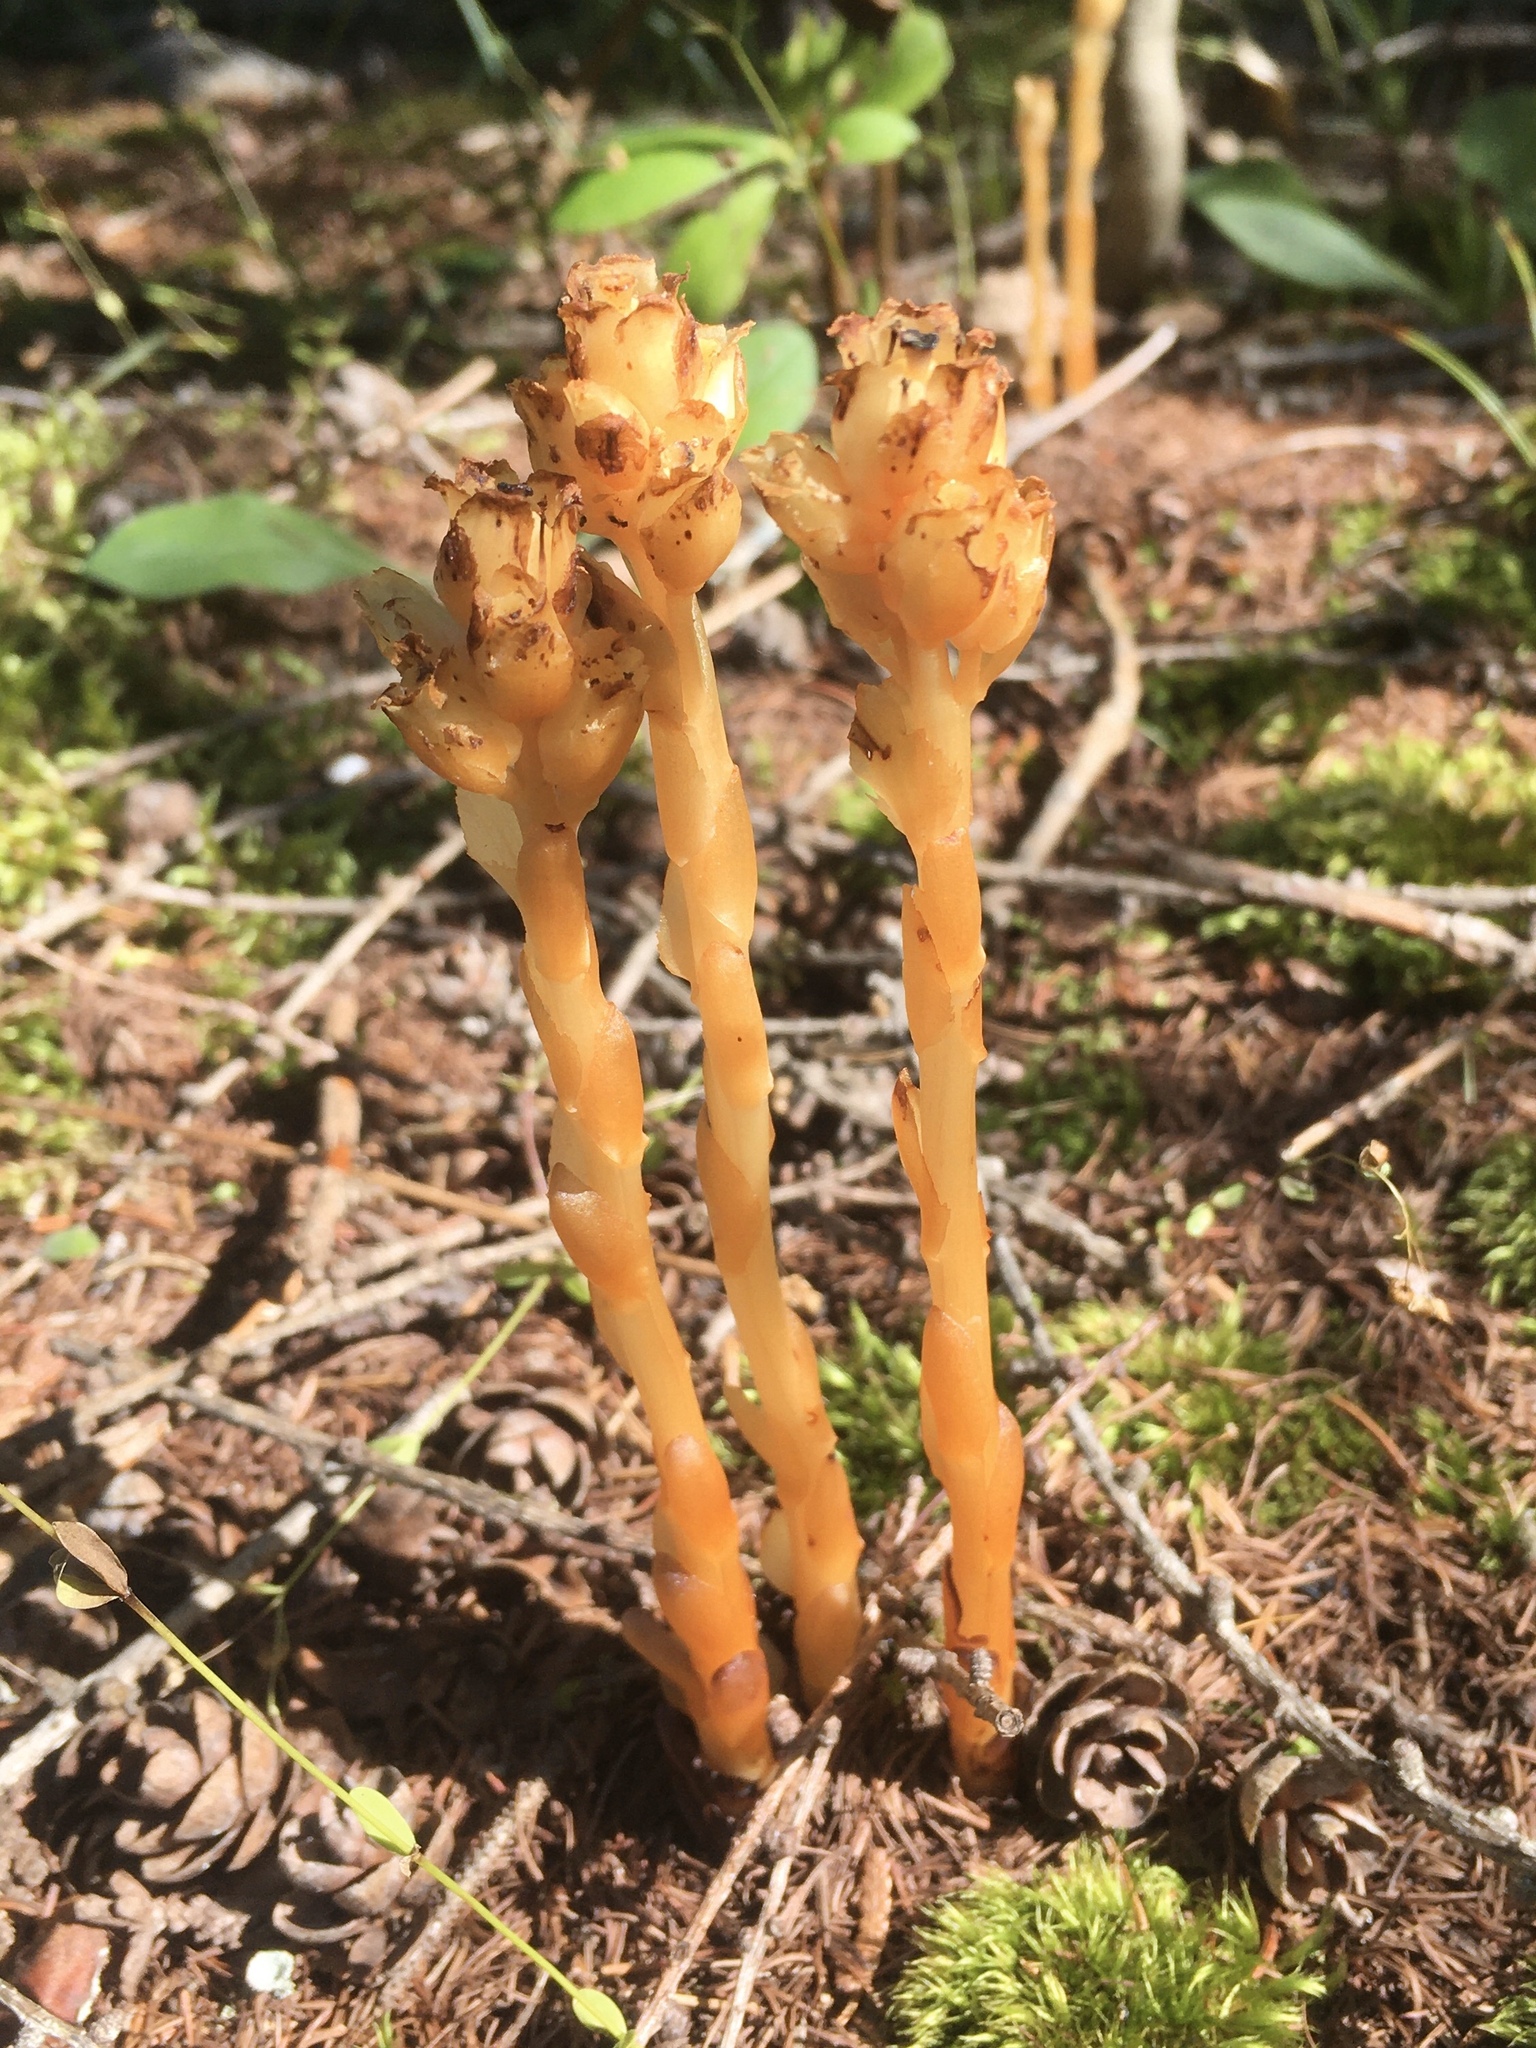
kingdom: Plantae
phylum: Tracheophyta
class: Magnoliopsida
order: Ericales
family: Ericaceae
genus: Hypopitys
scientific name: Hypopitys monotropa
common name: Yellow bird's-nest
